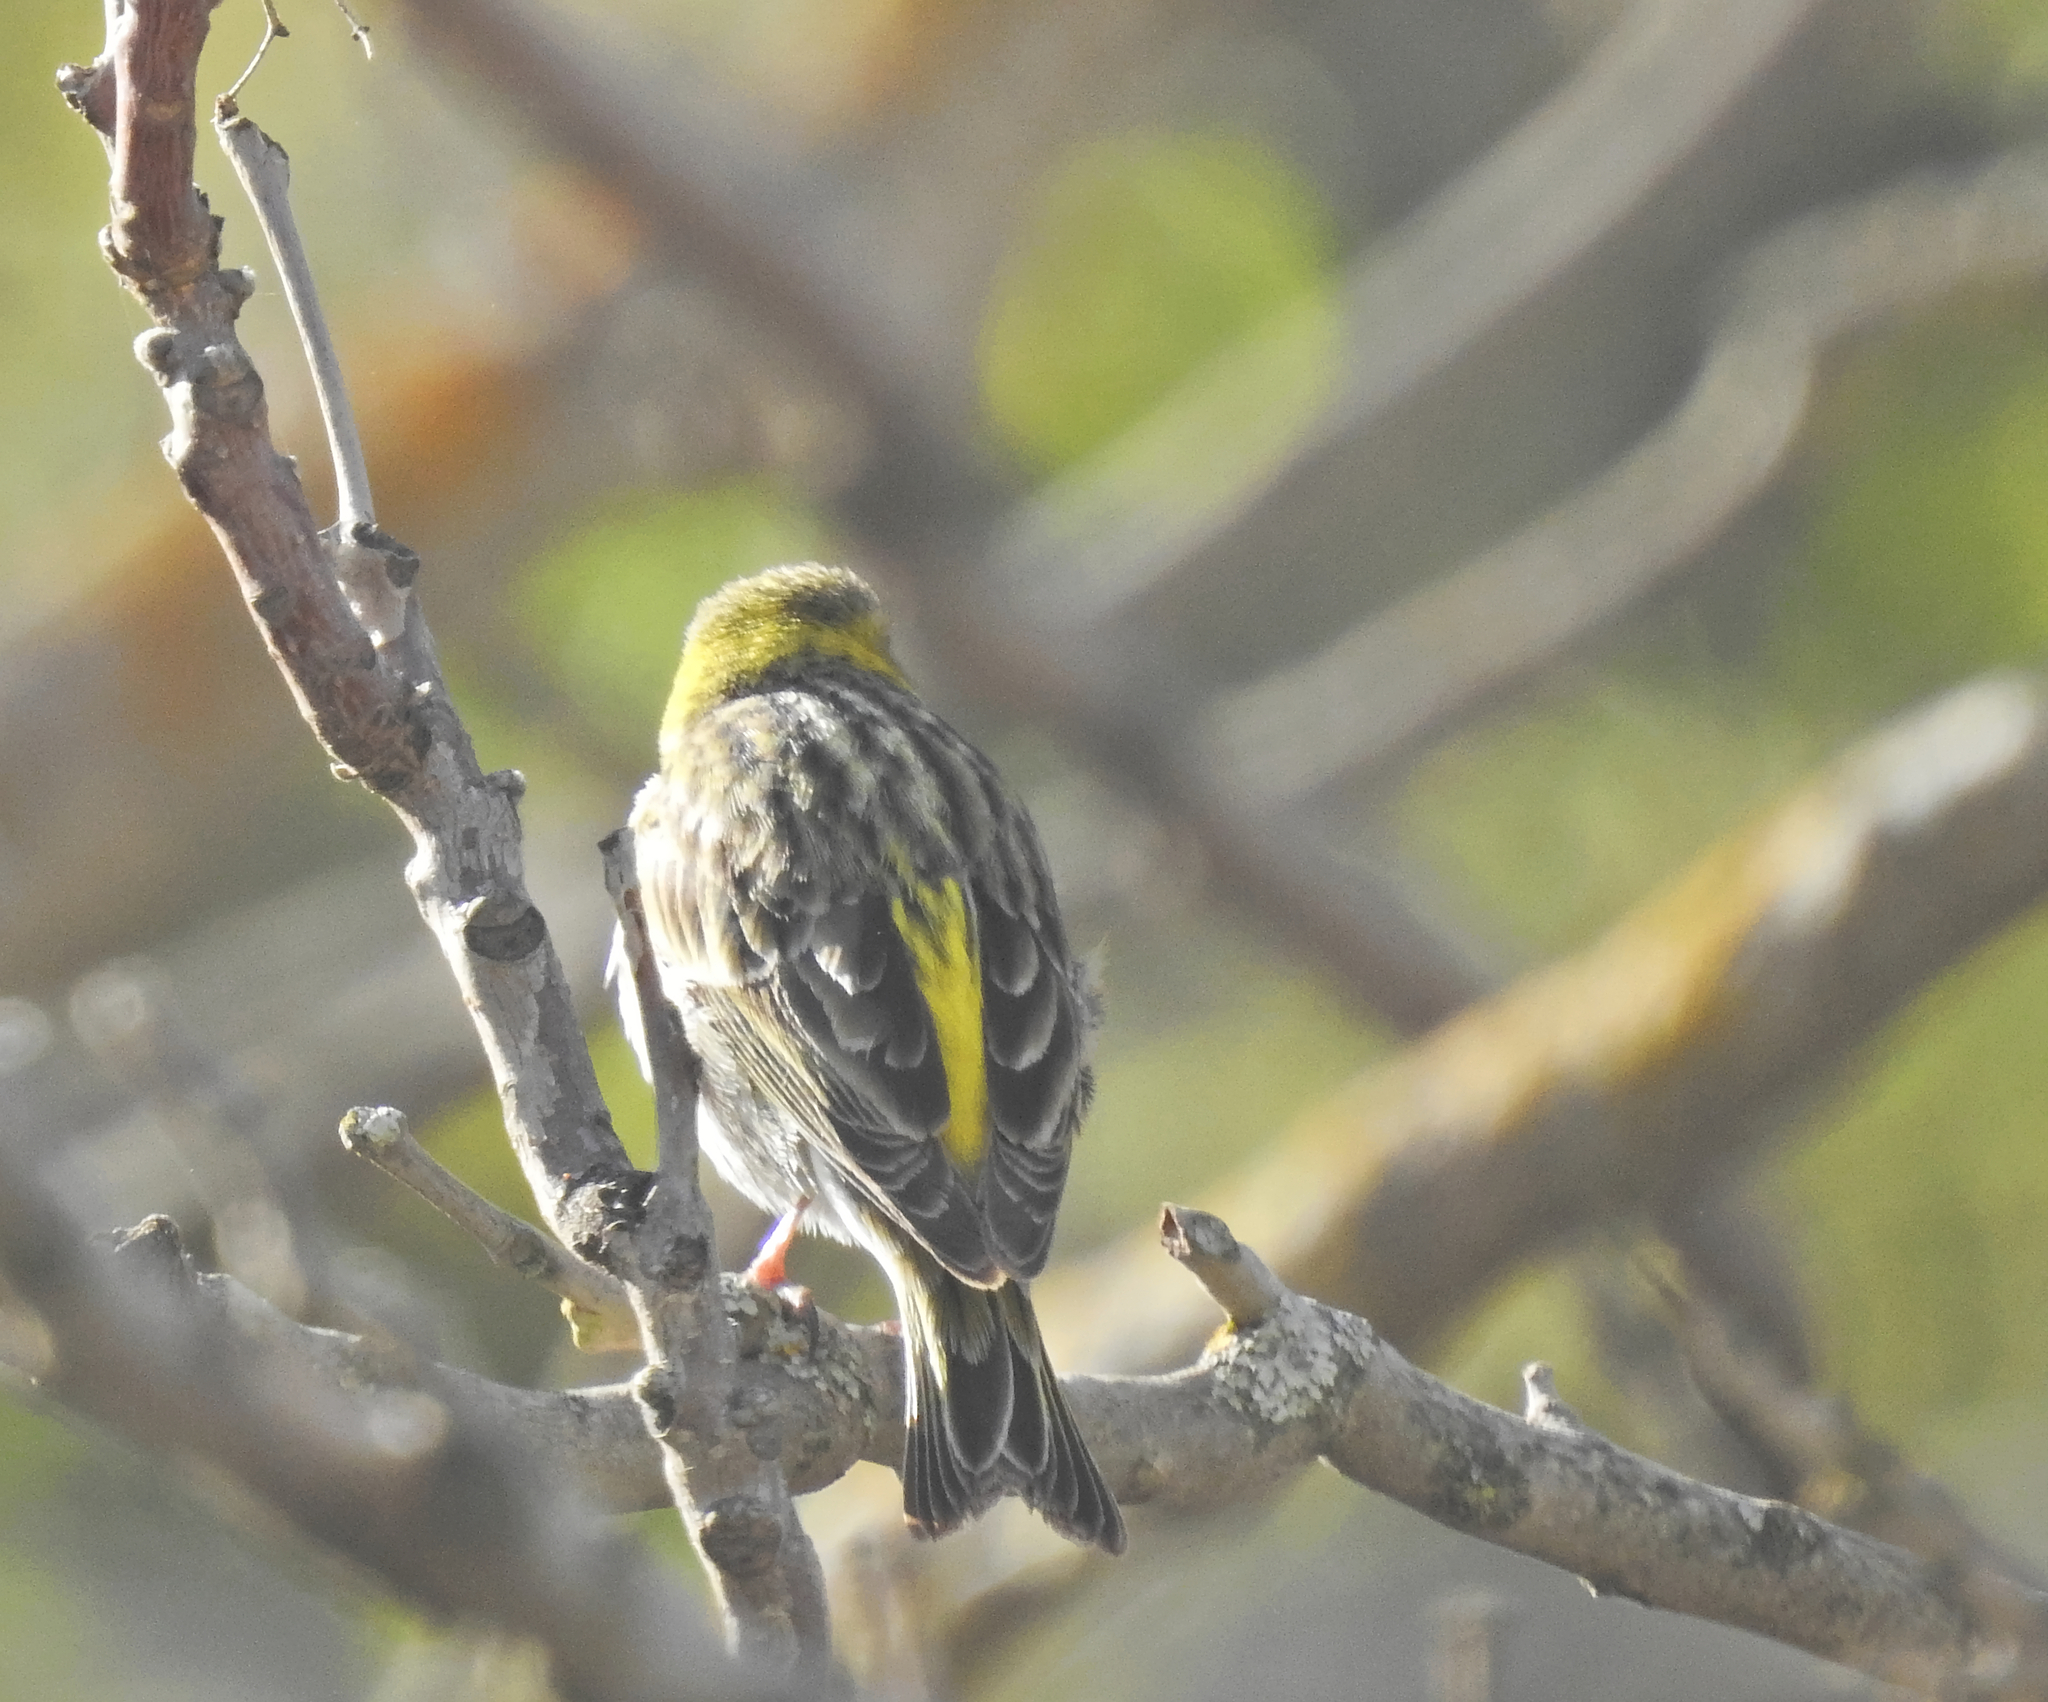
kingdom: Animalia
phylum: Chordata
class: Aves
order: Passeriformes
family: Fringillidae
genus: Serinus
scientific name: Serinus serinus
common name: European serin
